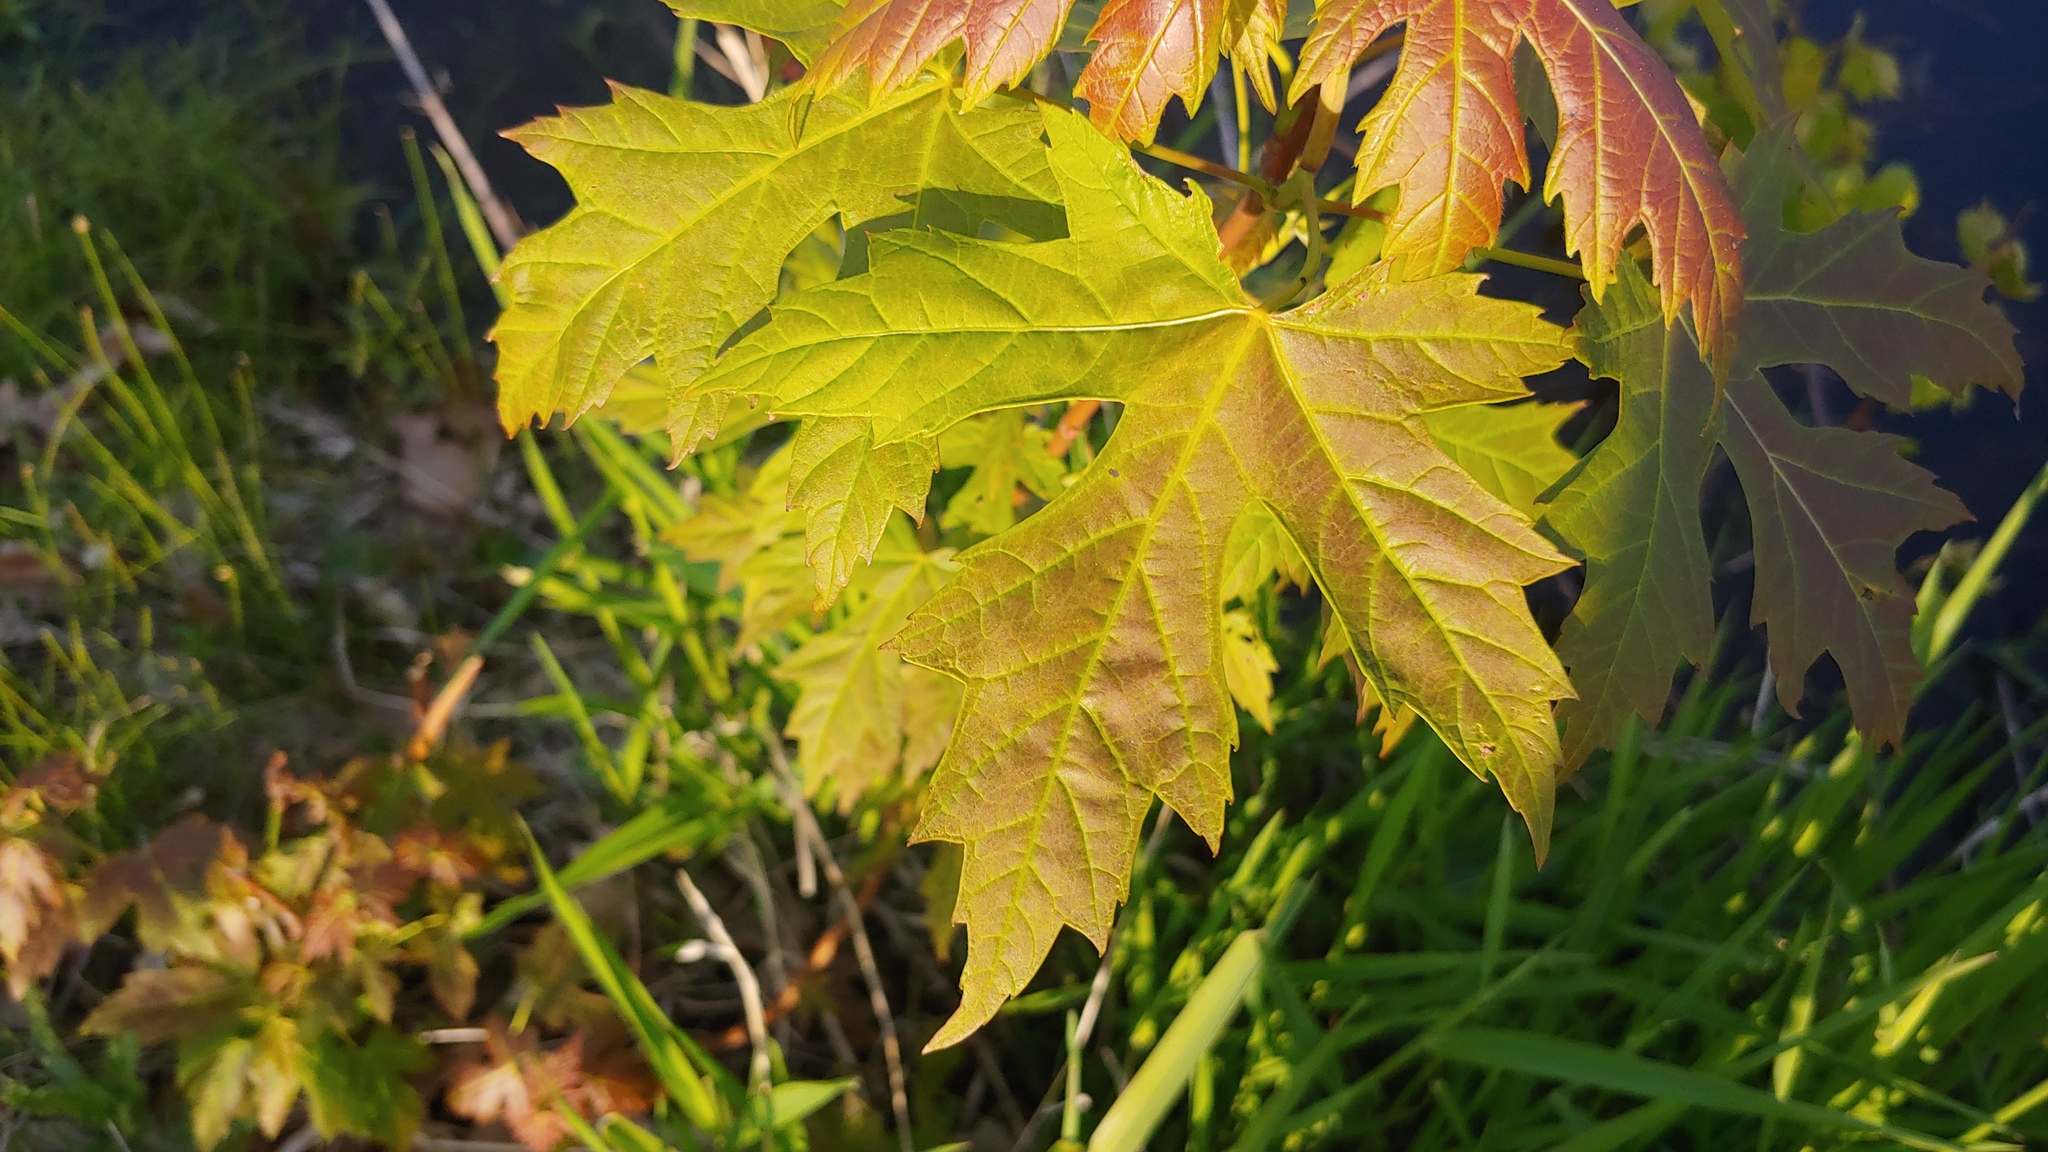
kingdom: Plantae
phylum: Tracheophyta
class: Magnoliopsida
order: Sapindales
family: Sapindaceae
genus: Acer
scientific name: Acer saccharinum
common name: Silver maple
